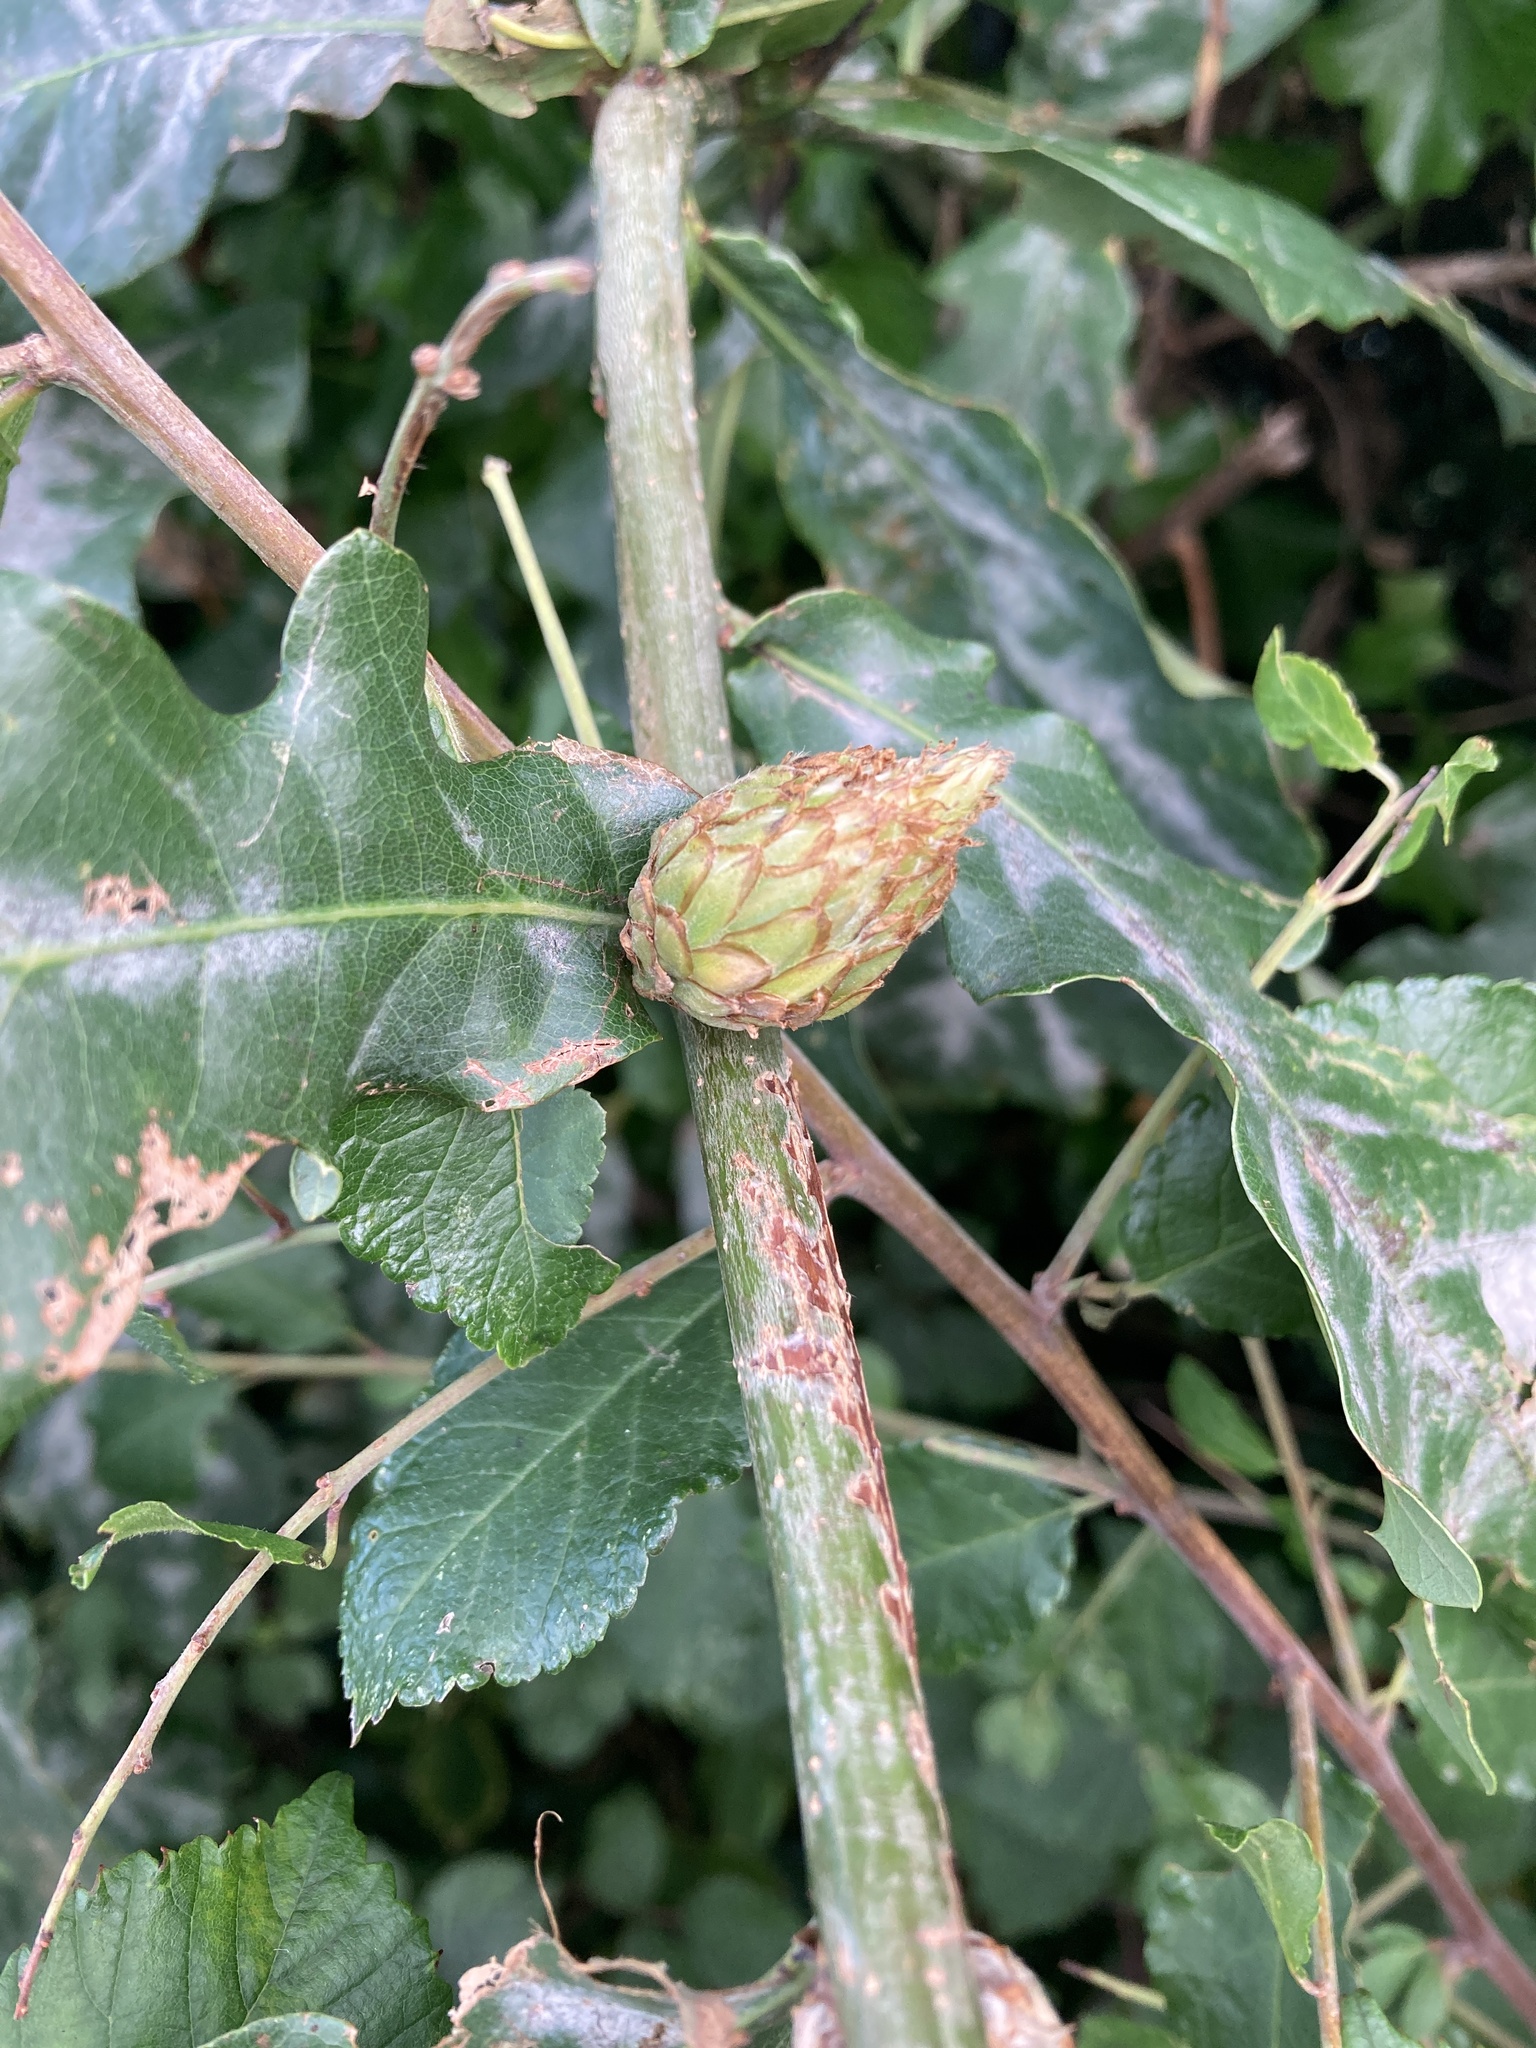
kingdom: Animalia
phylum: Arthropoda
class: Insecta
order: Hymenoptera
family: Cynipidae
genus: Andricus
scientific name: Andricus foecundatrix
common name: Artichoke gall
